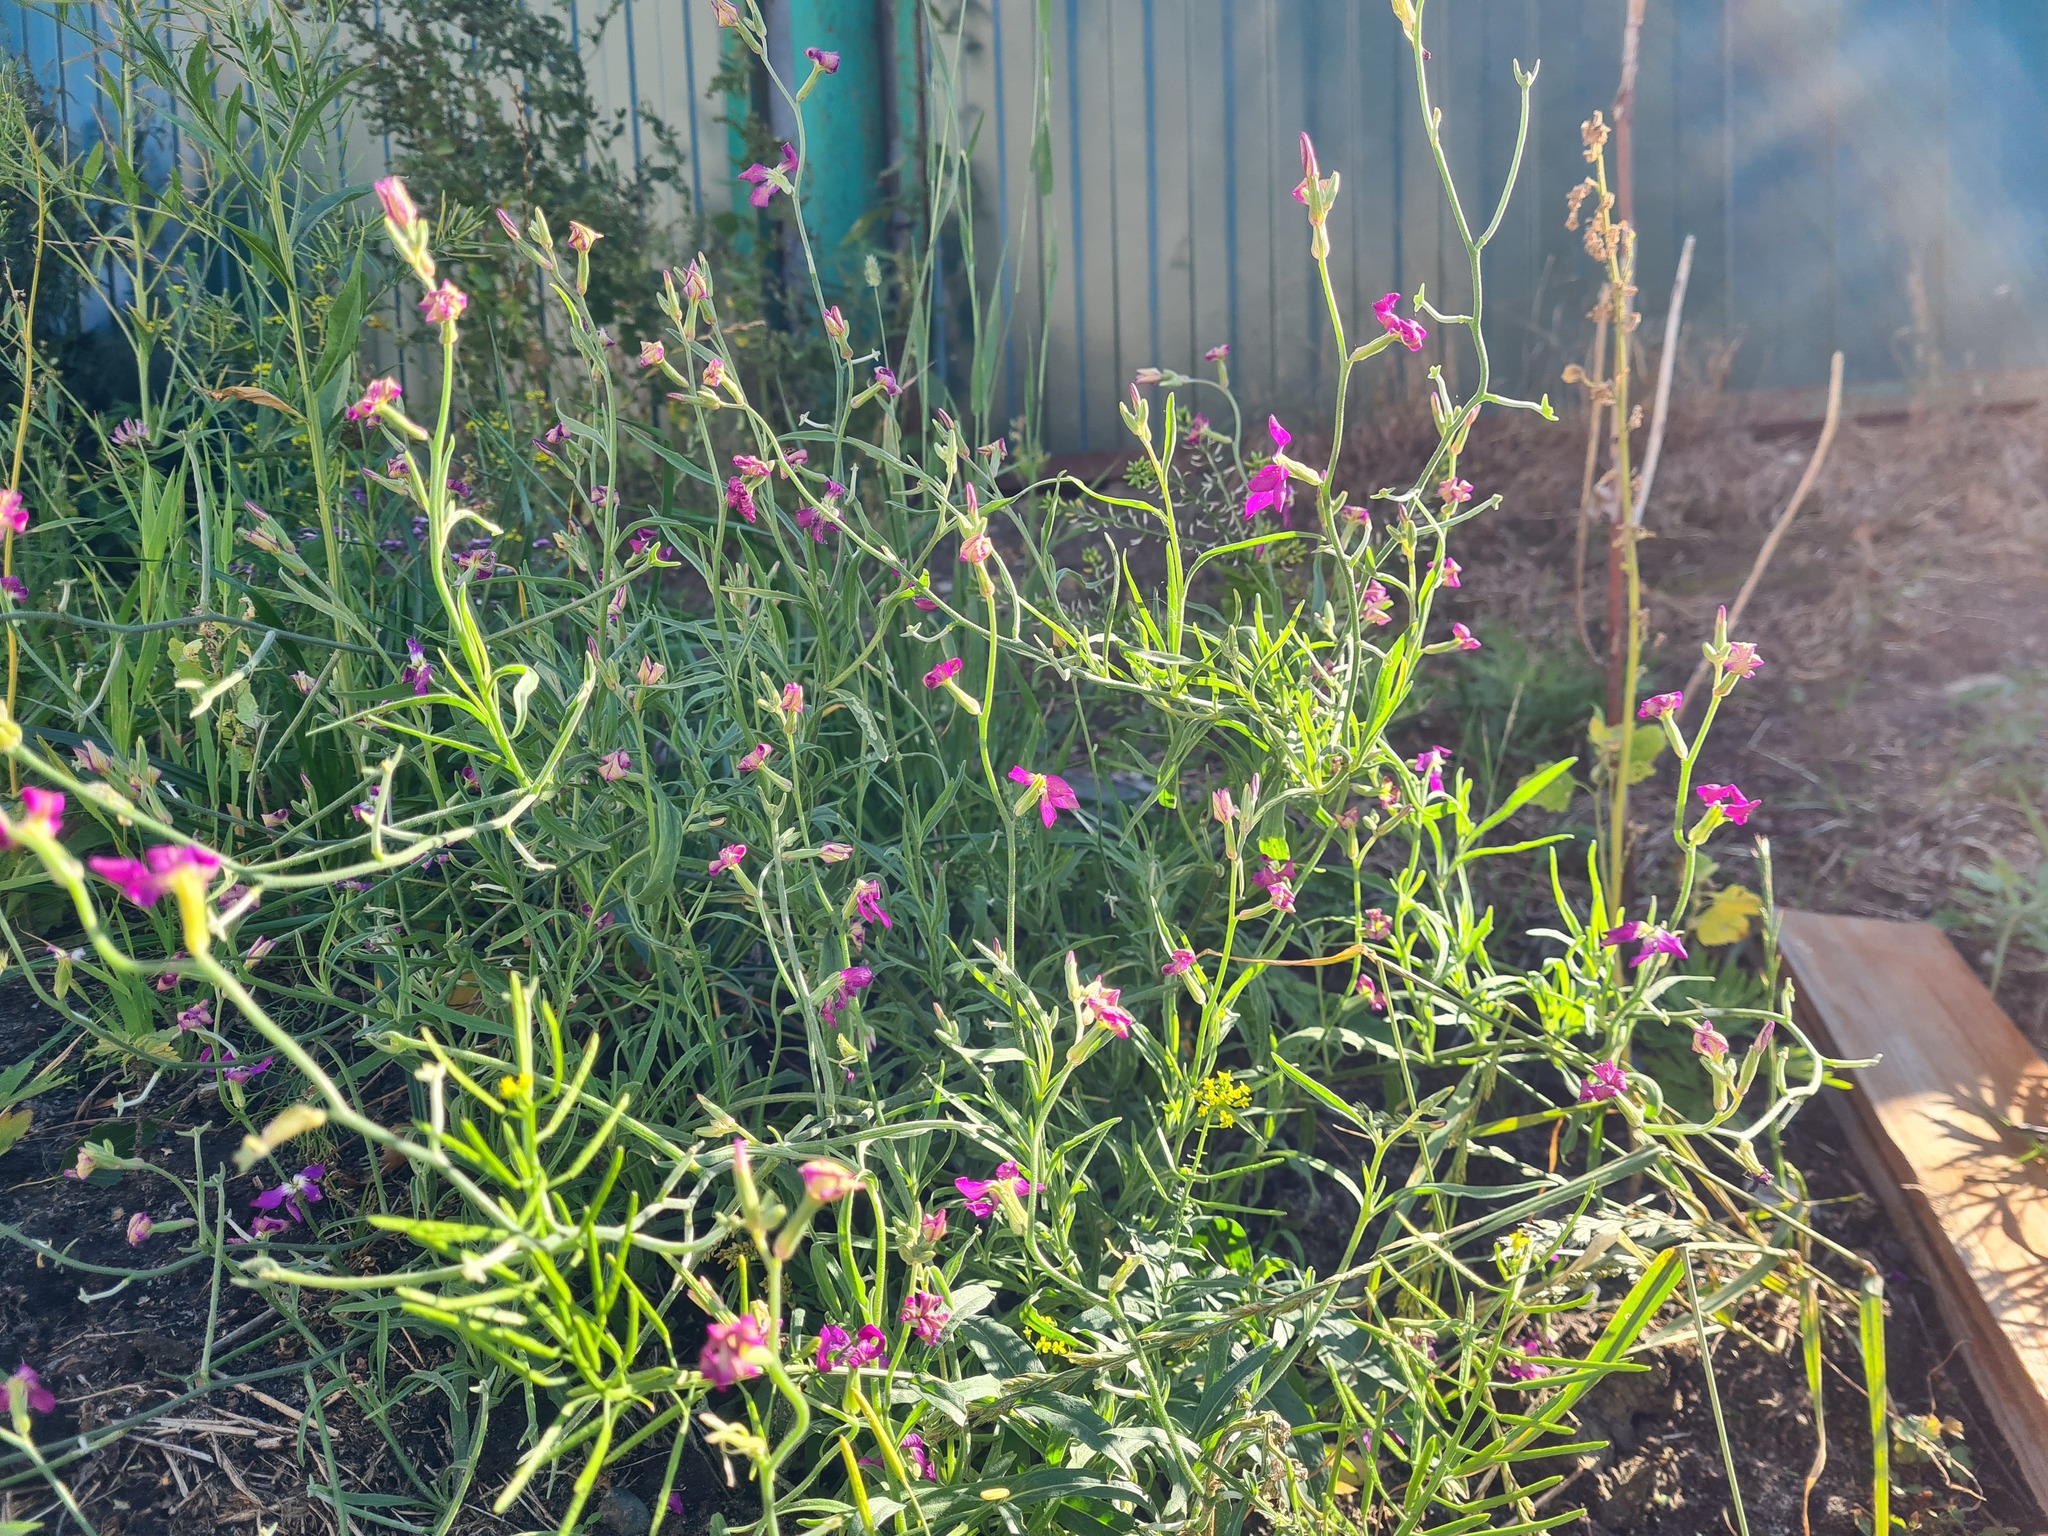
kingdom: Plantae
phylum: Tracheophyta
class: Magnoliopsida
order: Brassicales
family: Brassicaceae
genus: Matthiola
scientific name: Matthiola longipetala
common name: Night-scented stock
